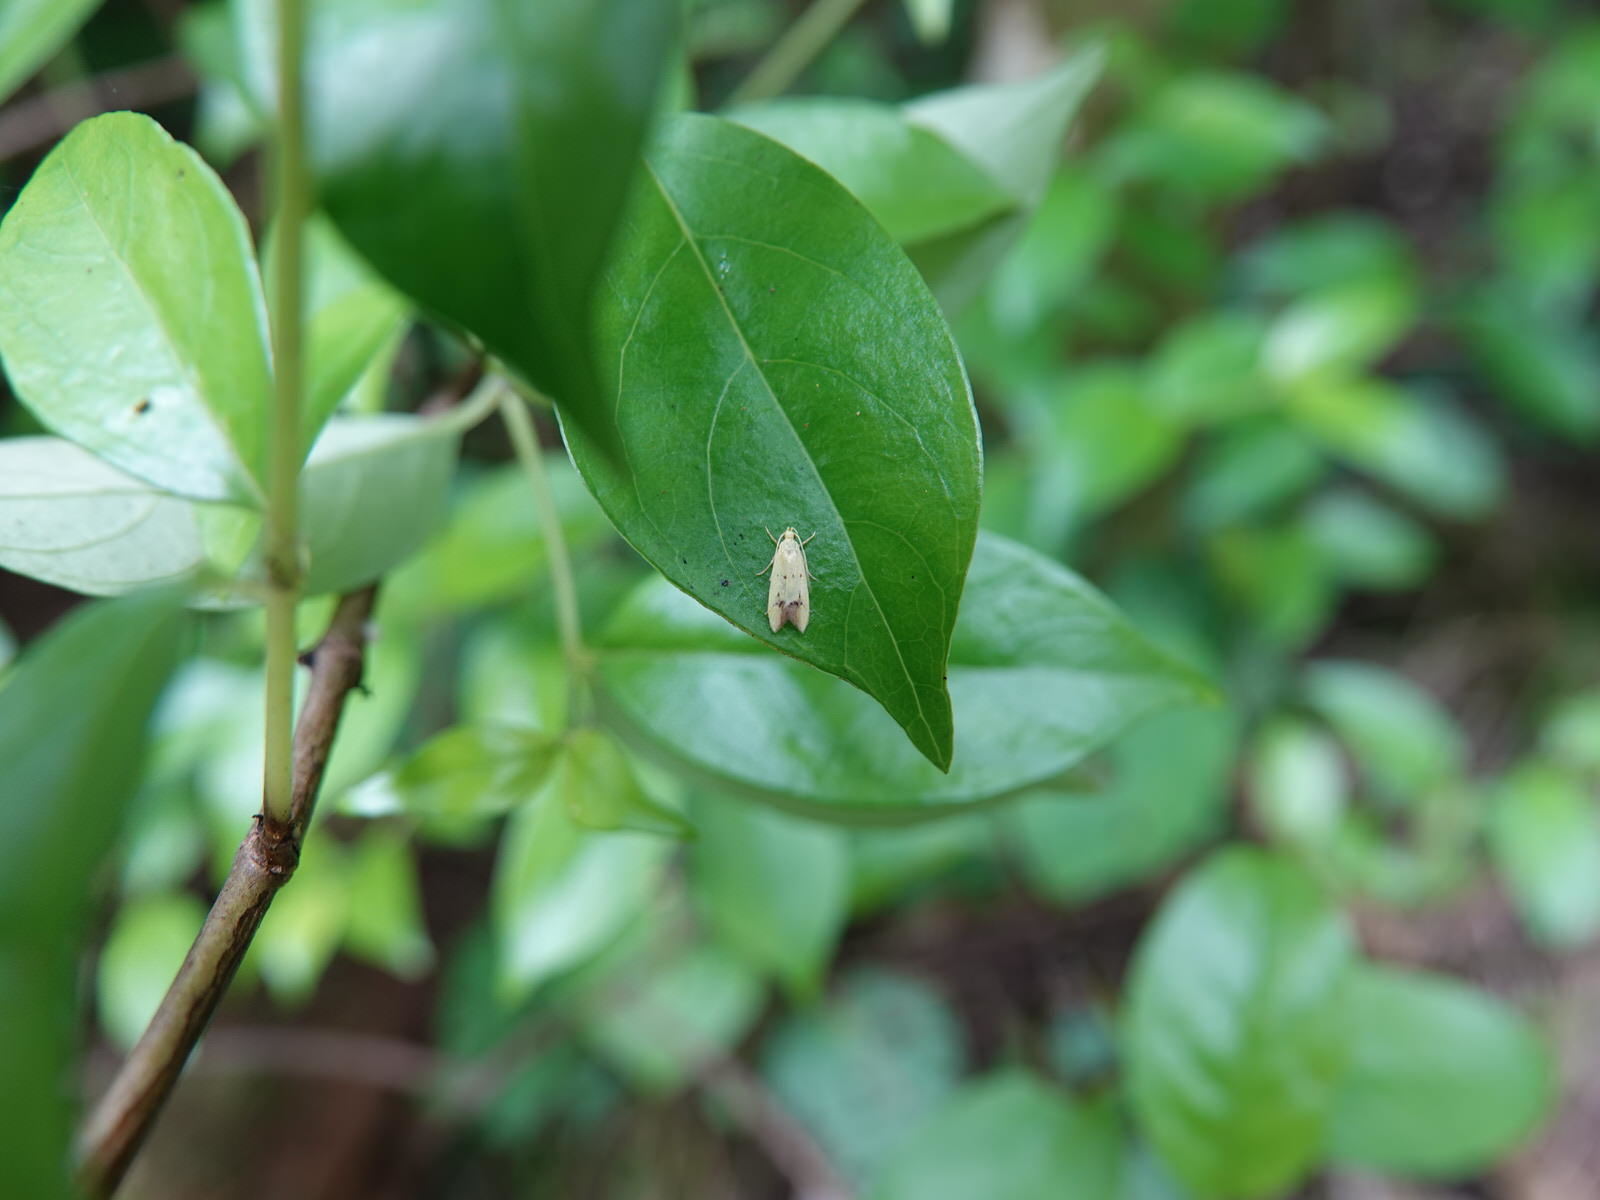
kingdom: Animalia
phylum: Arthropoda
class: Insecta
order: Lepidoptera
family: Oecophoridae
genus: Gymnobathra
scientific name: Gymnobathra flavidella
